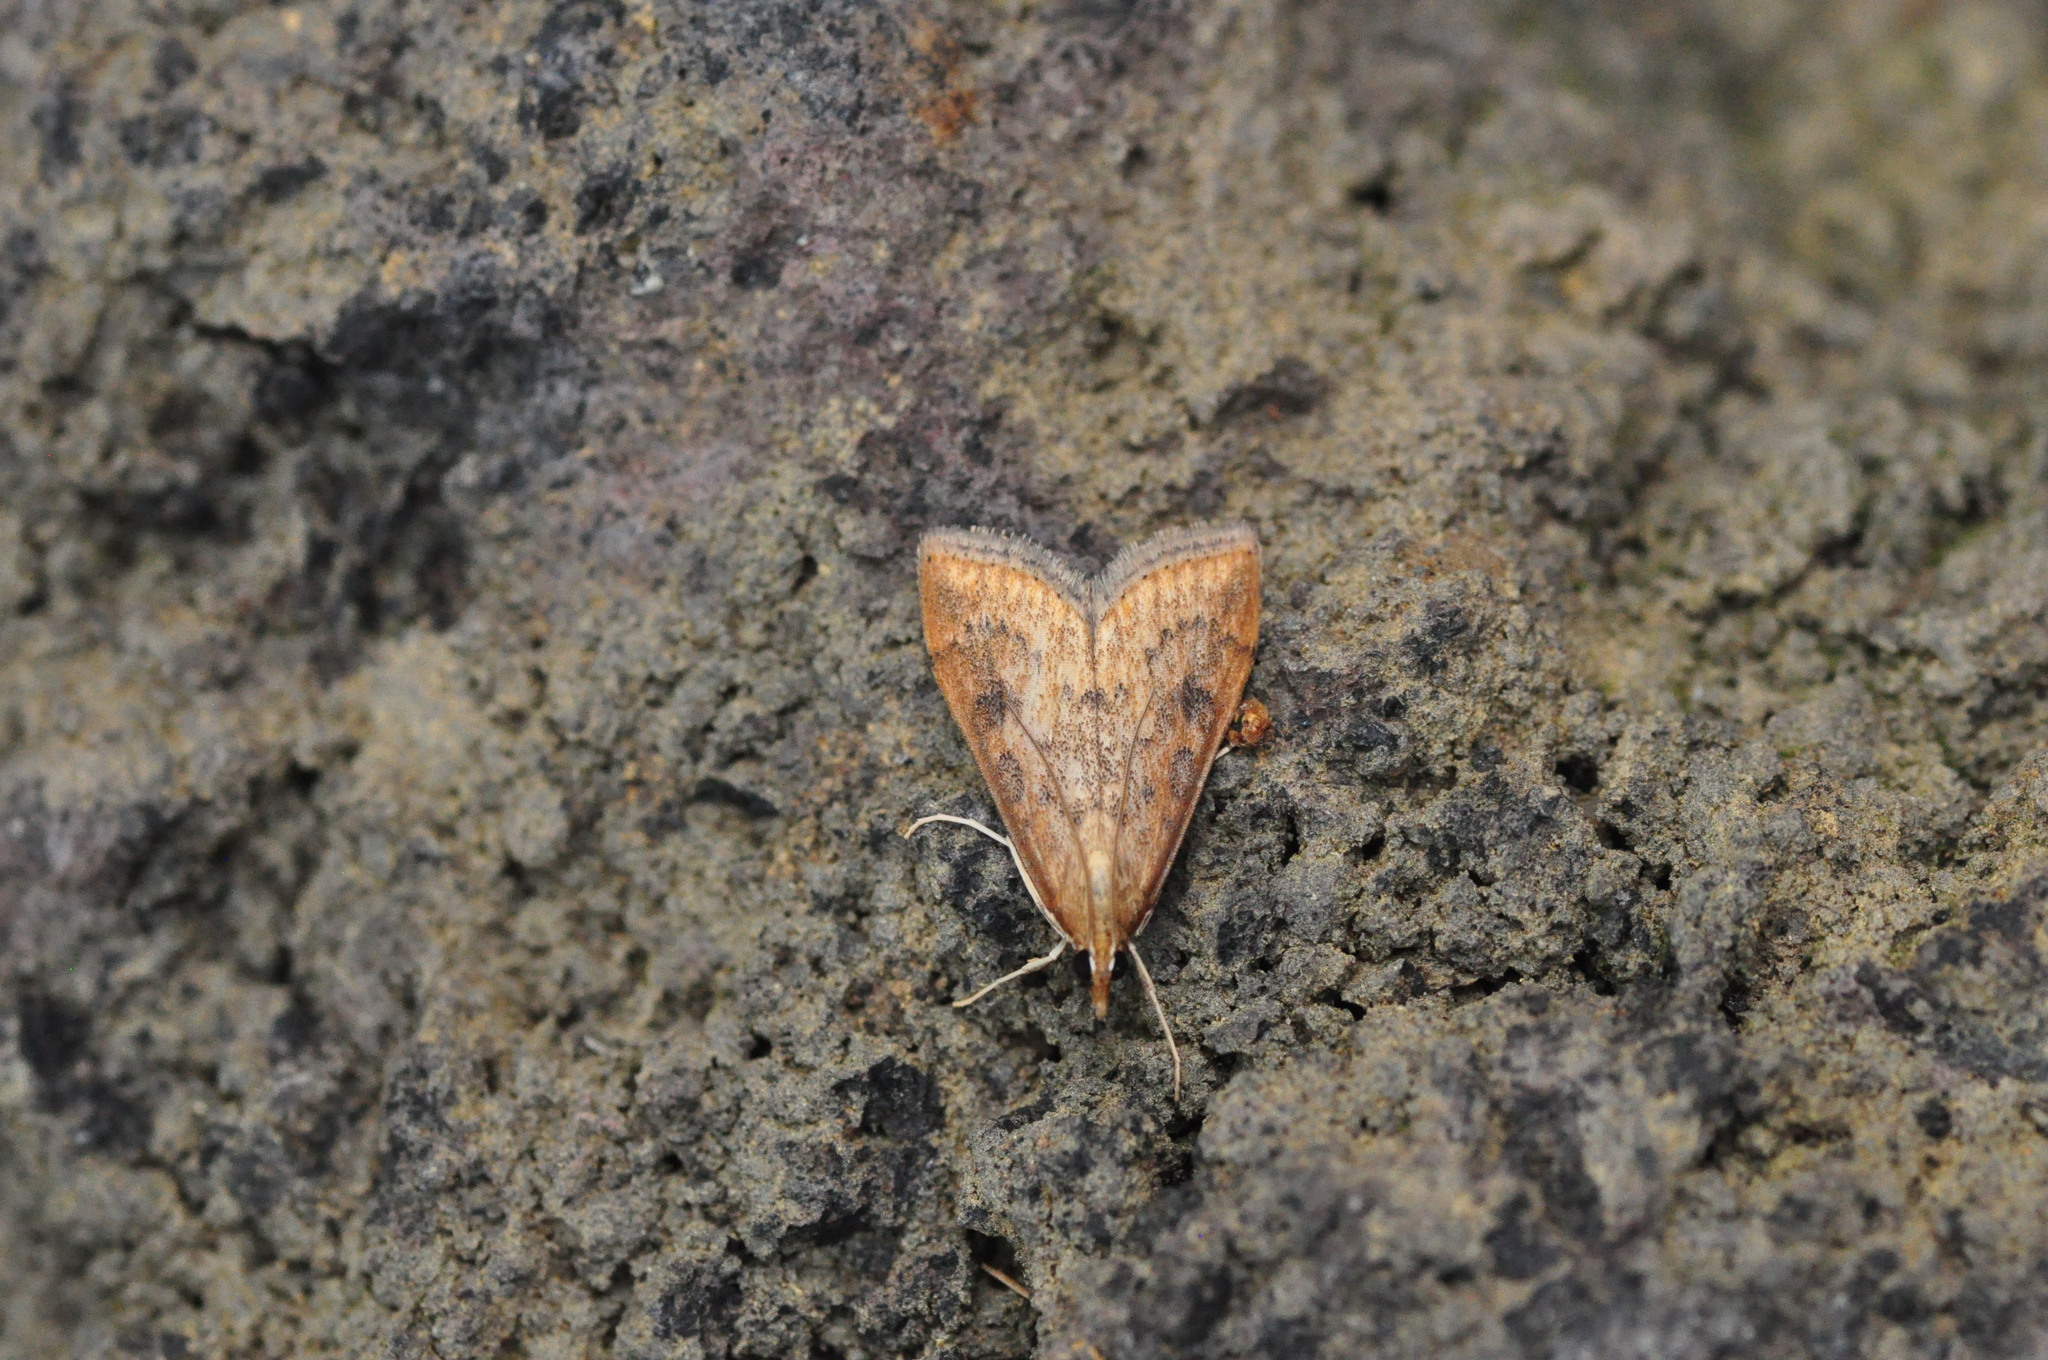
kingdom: Animalia
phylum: Arthropoda
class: Insecta
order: Lepidoptera
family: Crambidae
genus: Udea
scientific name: Udea ferrugalis
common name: Rusty dot
